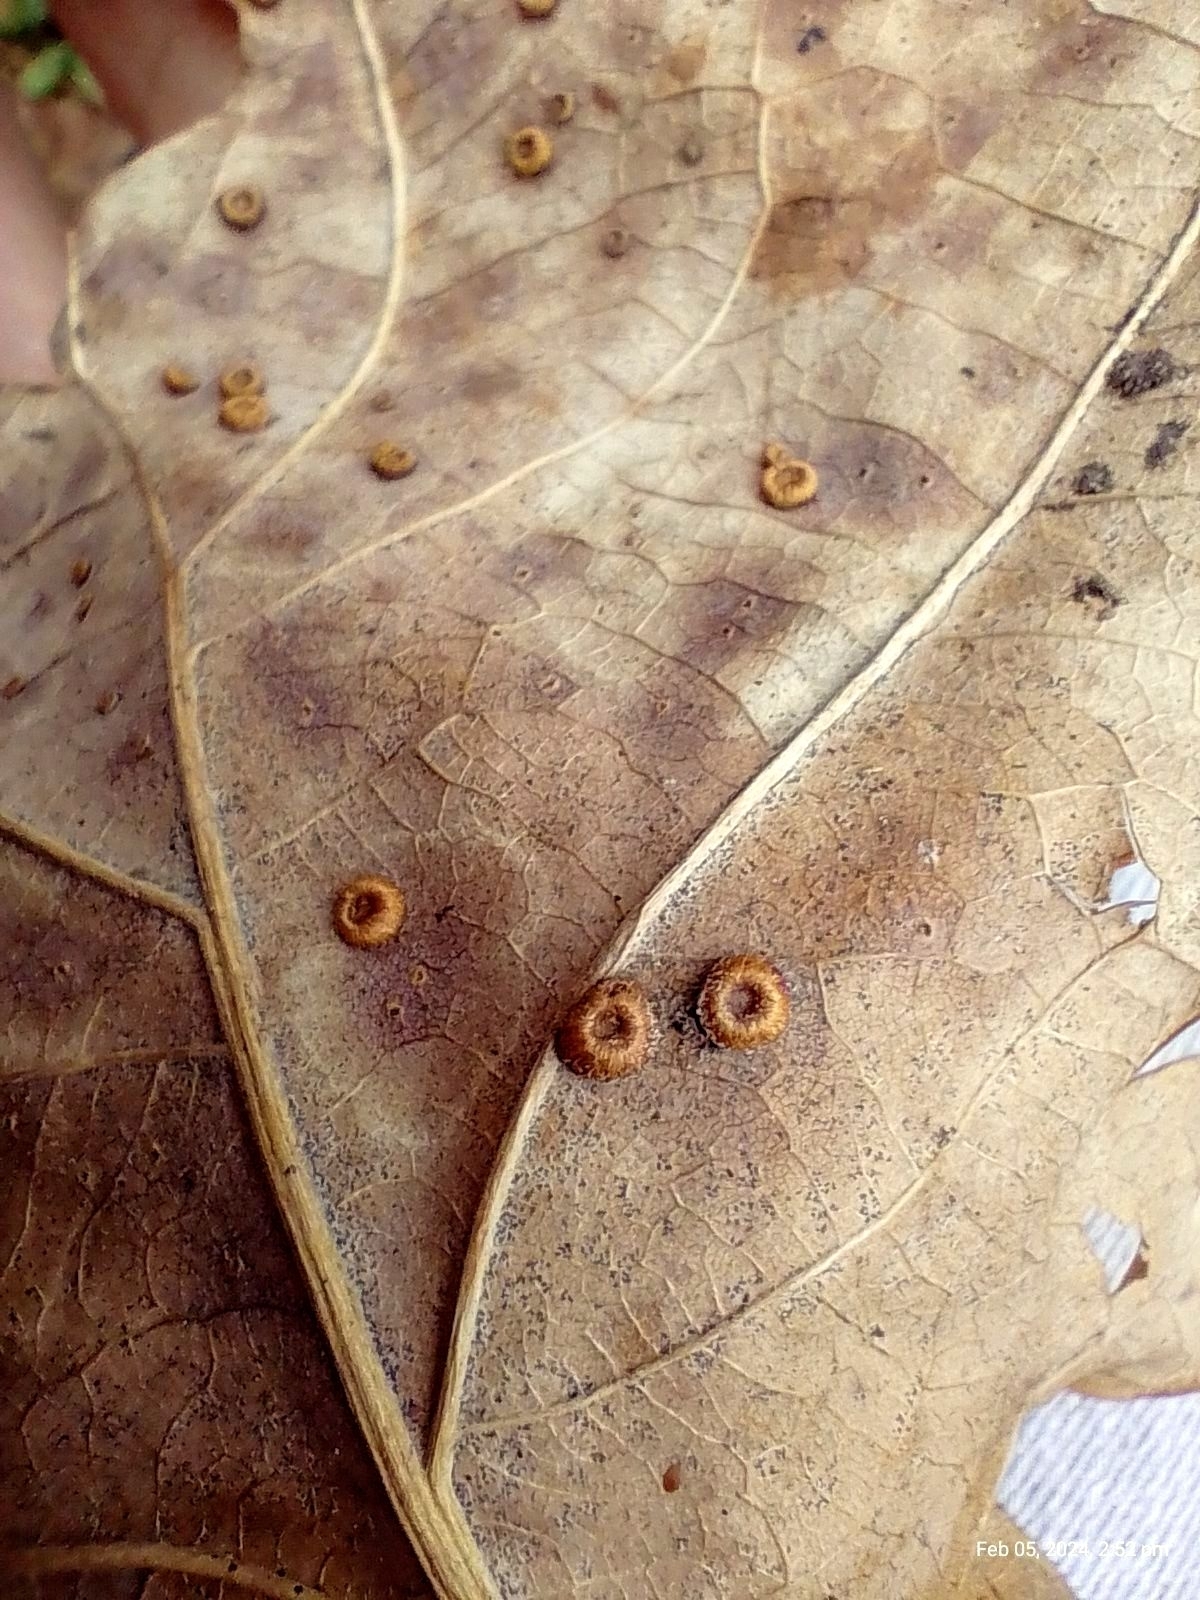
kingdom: Animalia
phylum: Arthropoda
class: Insecta
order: Hymenoptera
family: Cynipidae
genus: Neuroterus
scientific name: Neuroterus numismalis
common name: Silk-button spangle gall
